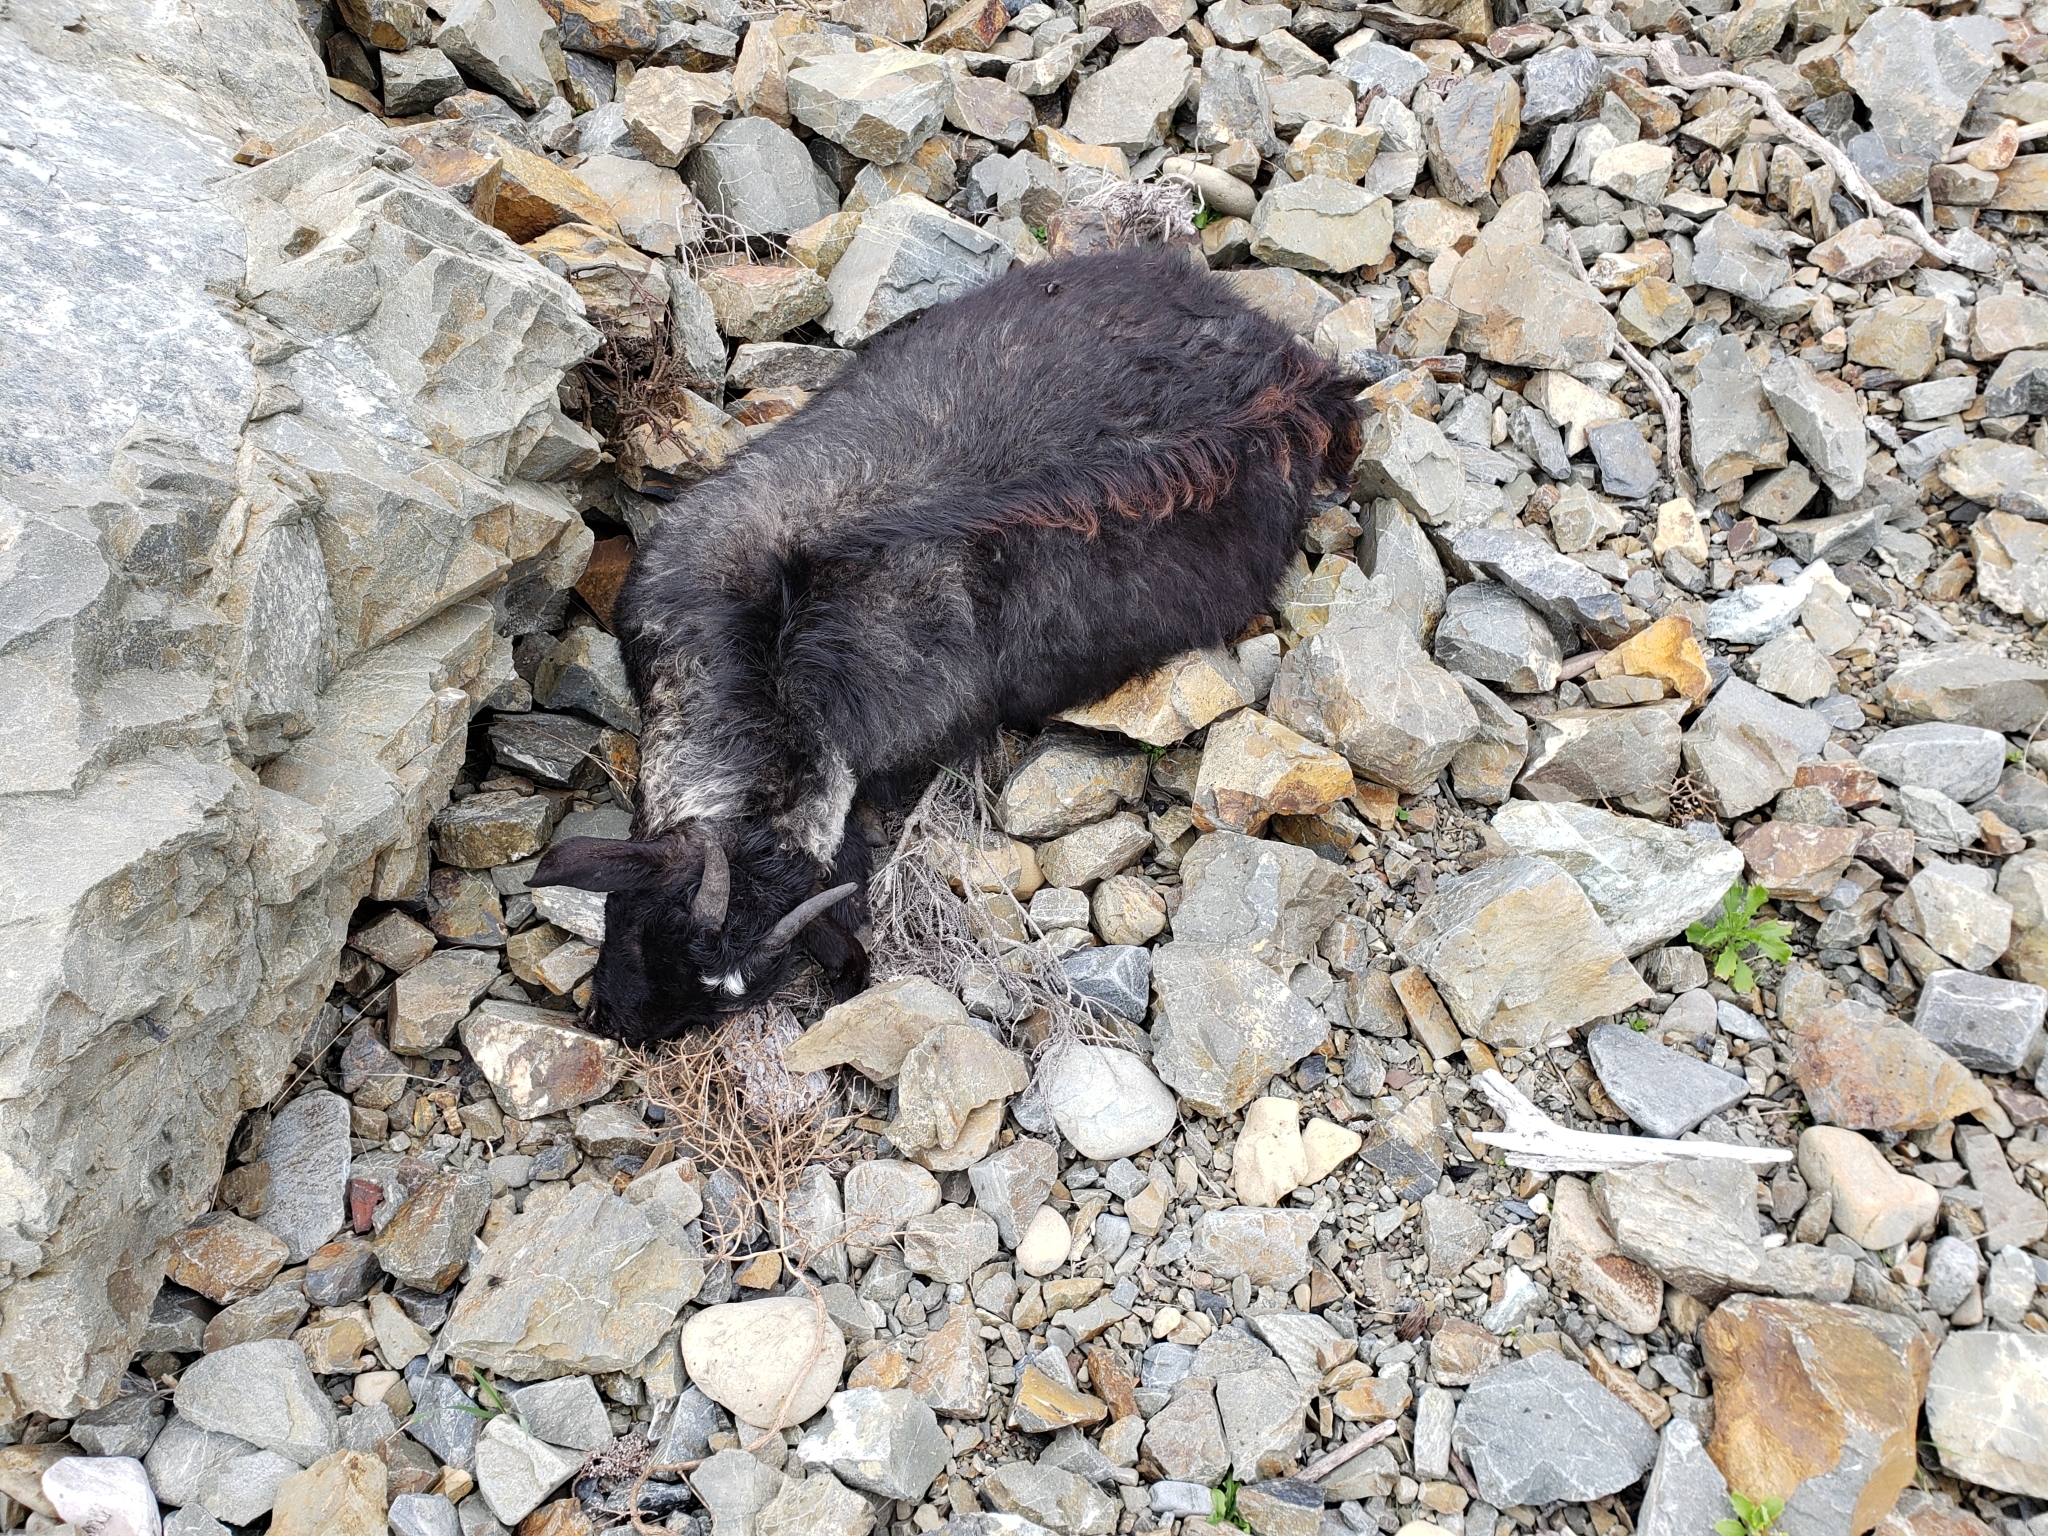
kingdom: Animalia
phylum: Chordata
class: Mammalia
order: Artiodactyla
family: Bovidae
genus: Capra
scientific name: Capra hircus
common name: Domestic goat
